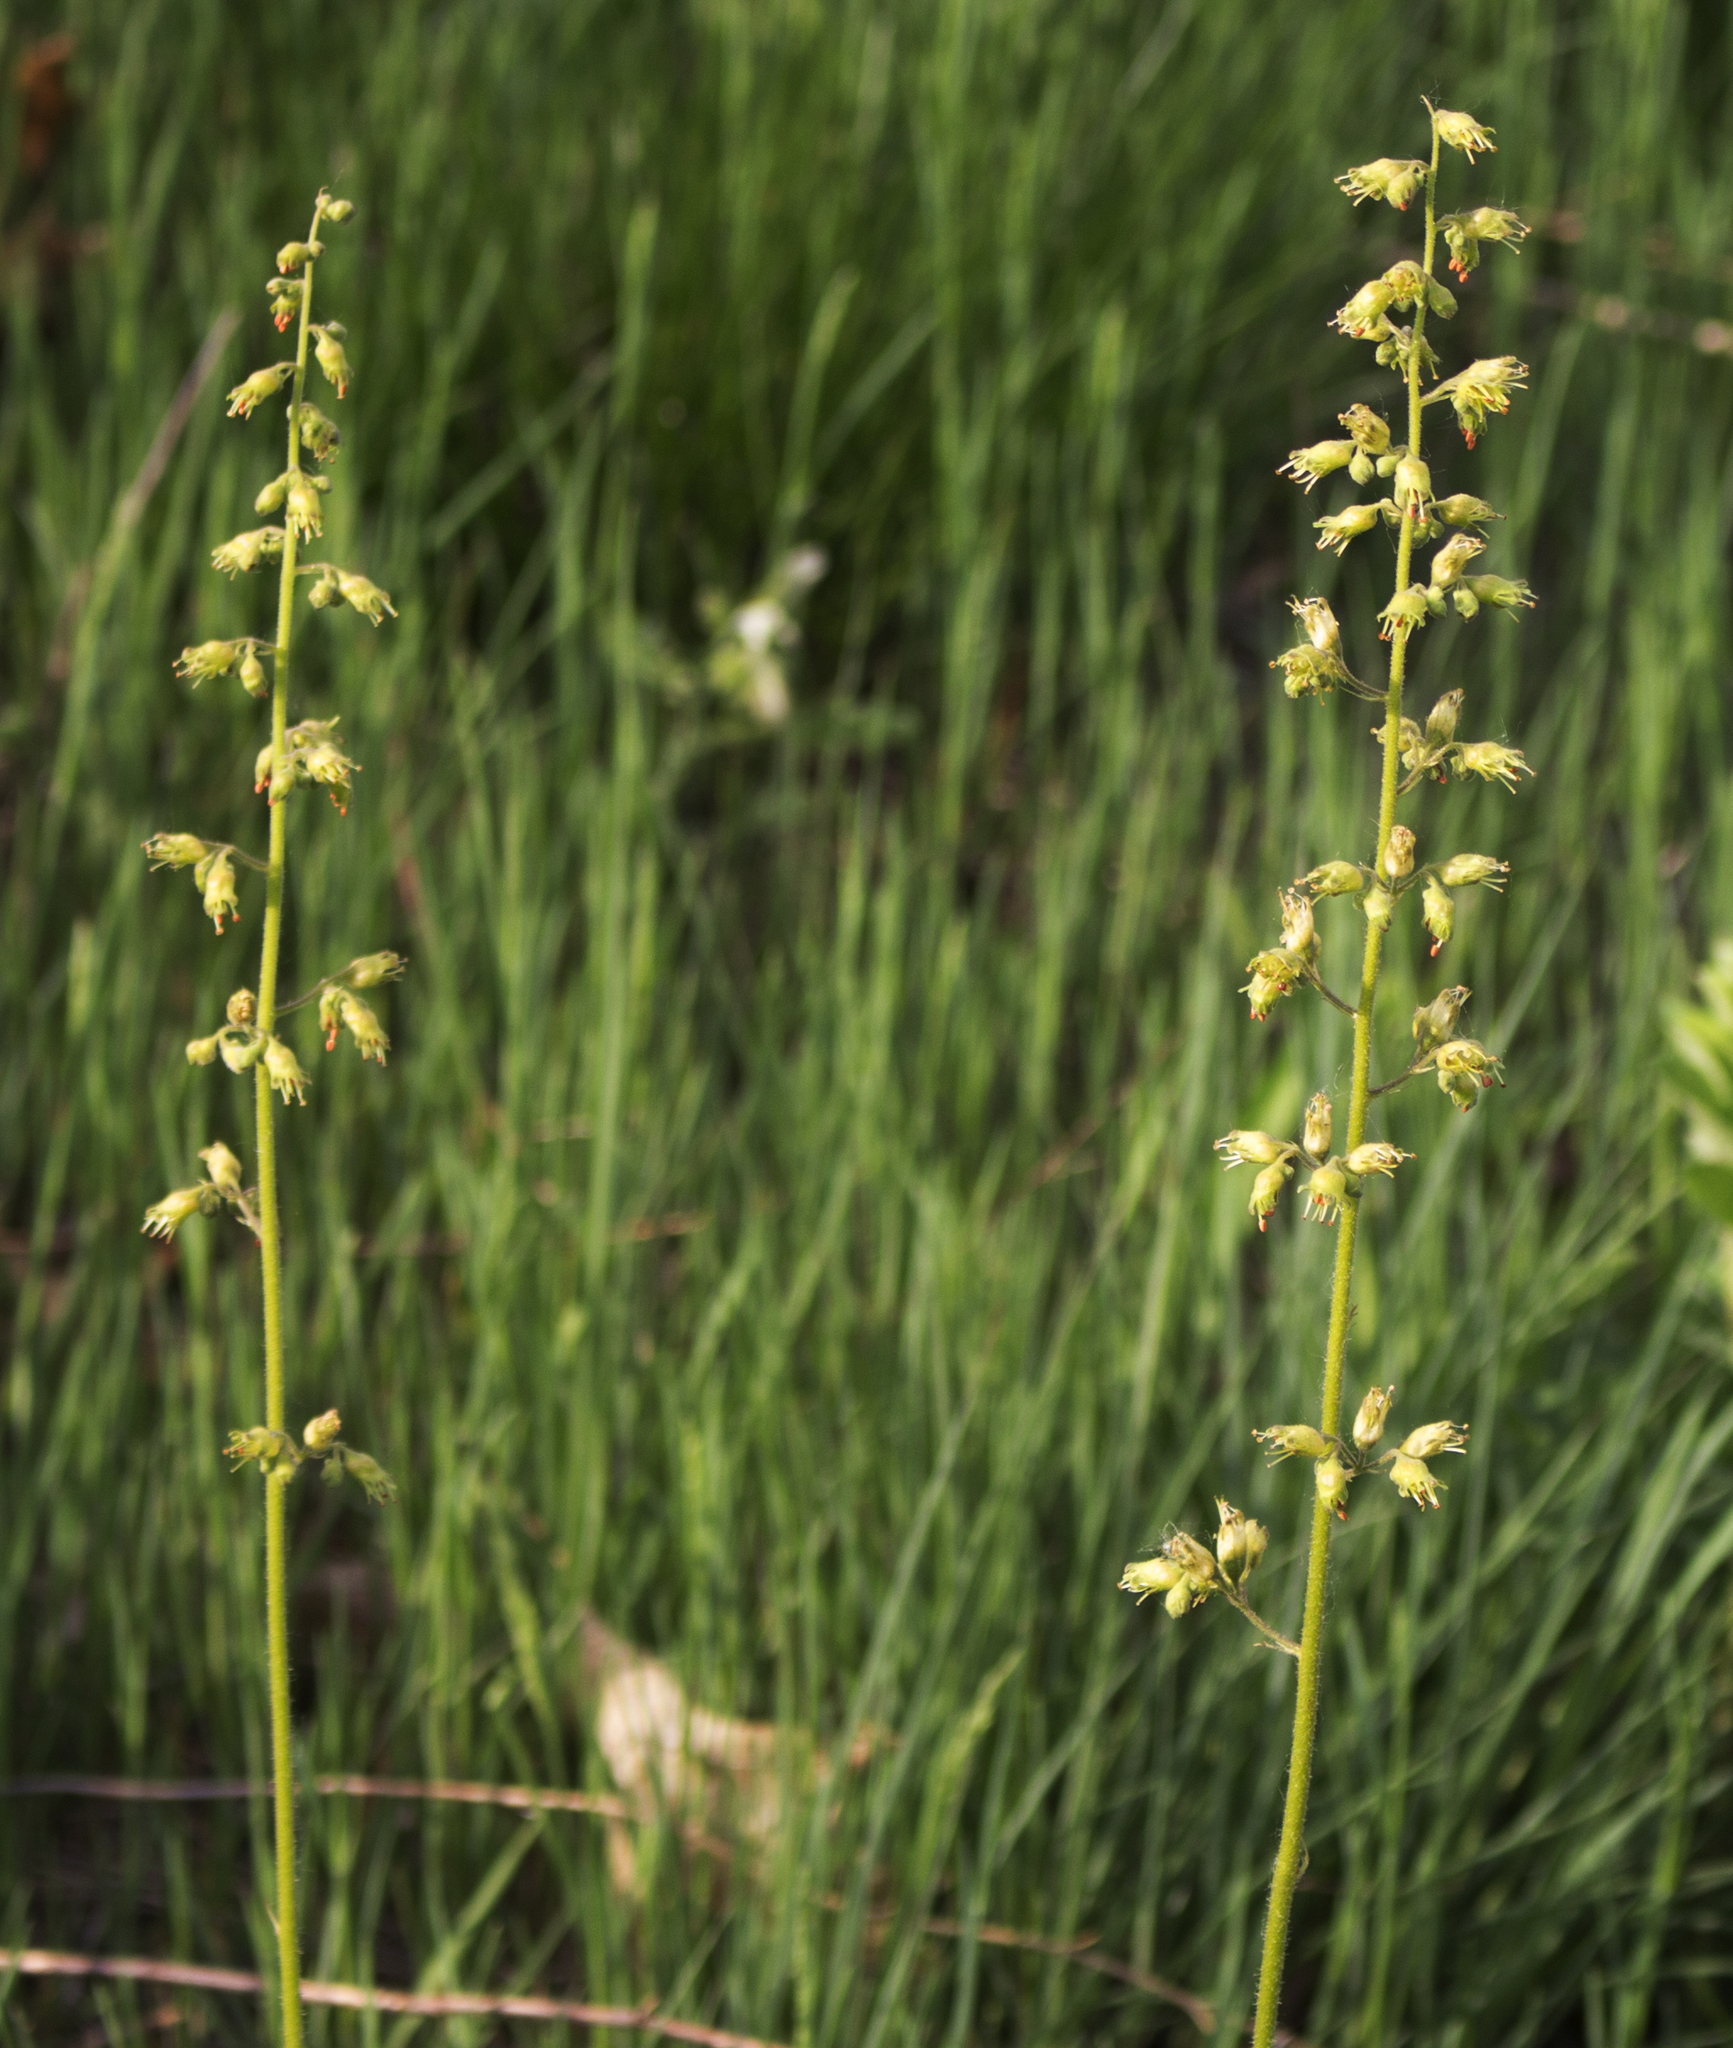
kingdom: Plantae
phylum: Tracheophyta
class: Magnoliopsida
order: Saxifragales
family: Saxifragaceae
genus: Heuchera
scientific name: Heuchera richardsonii
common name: Richardson's alumroot
